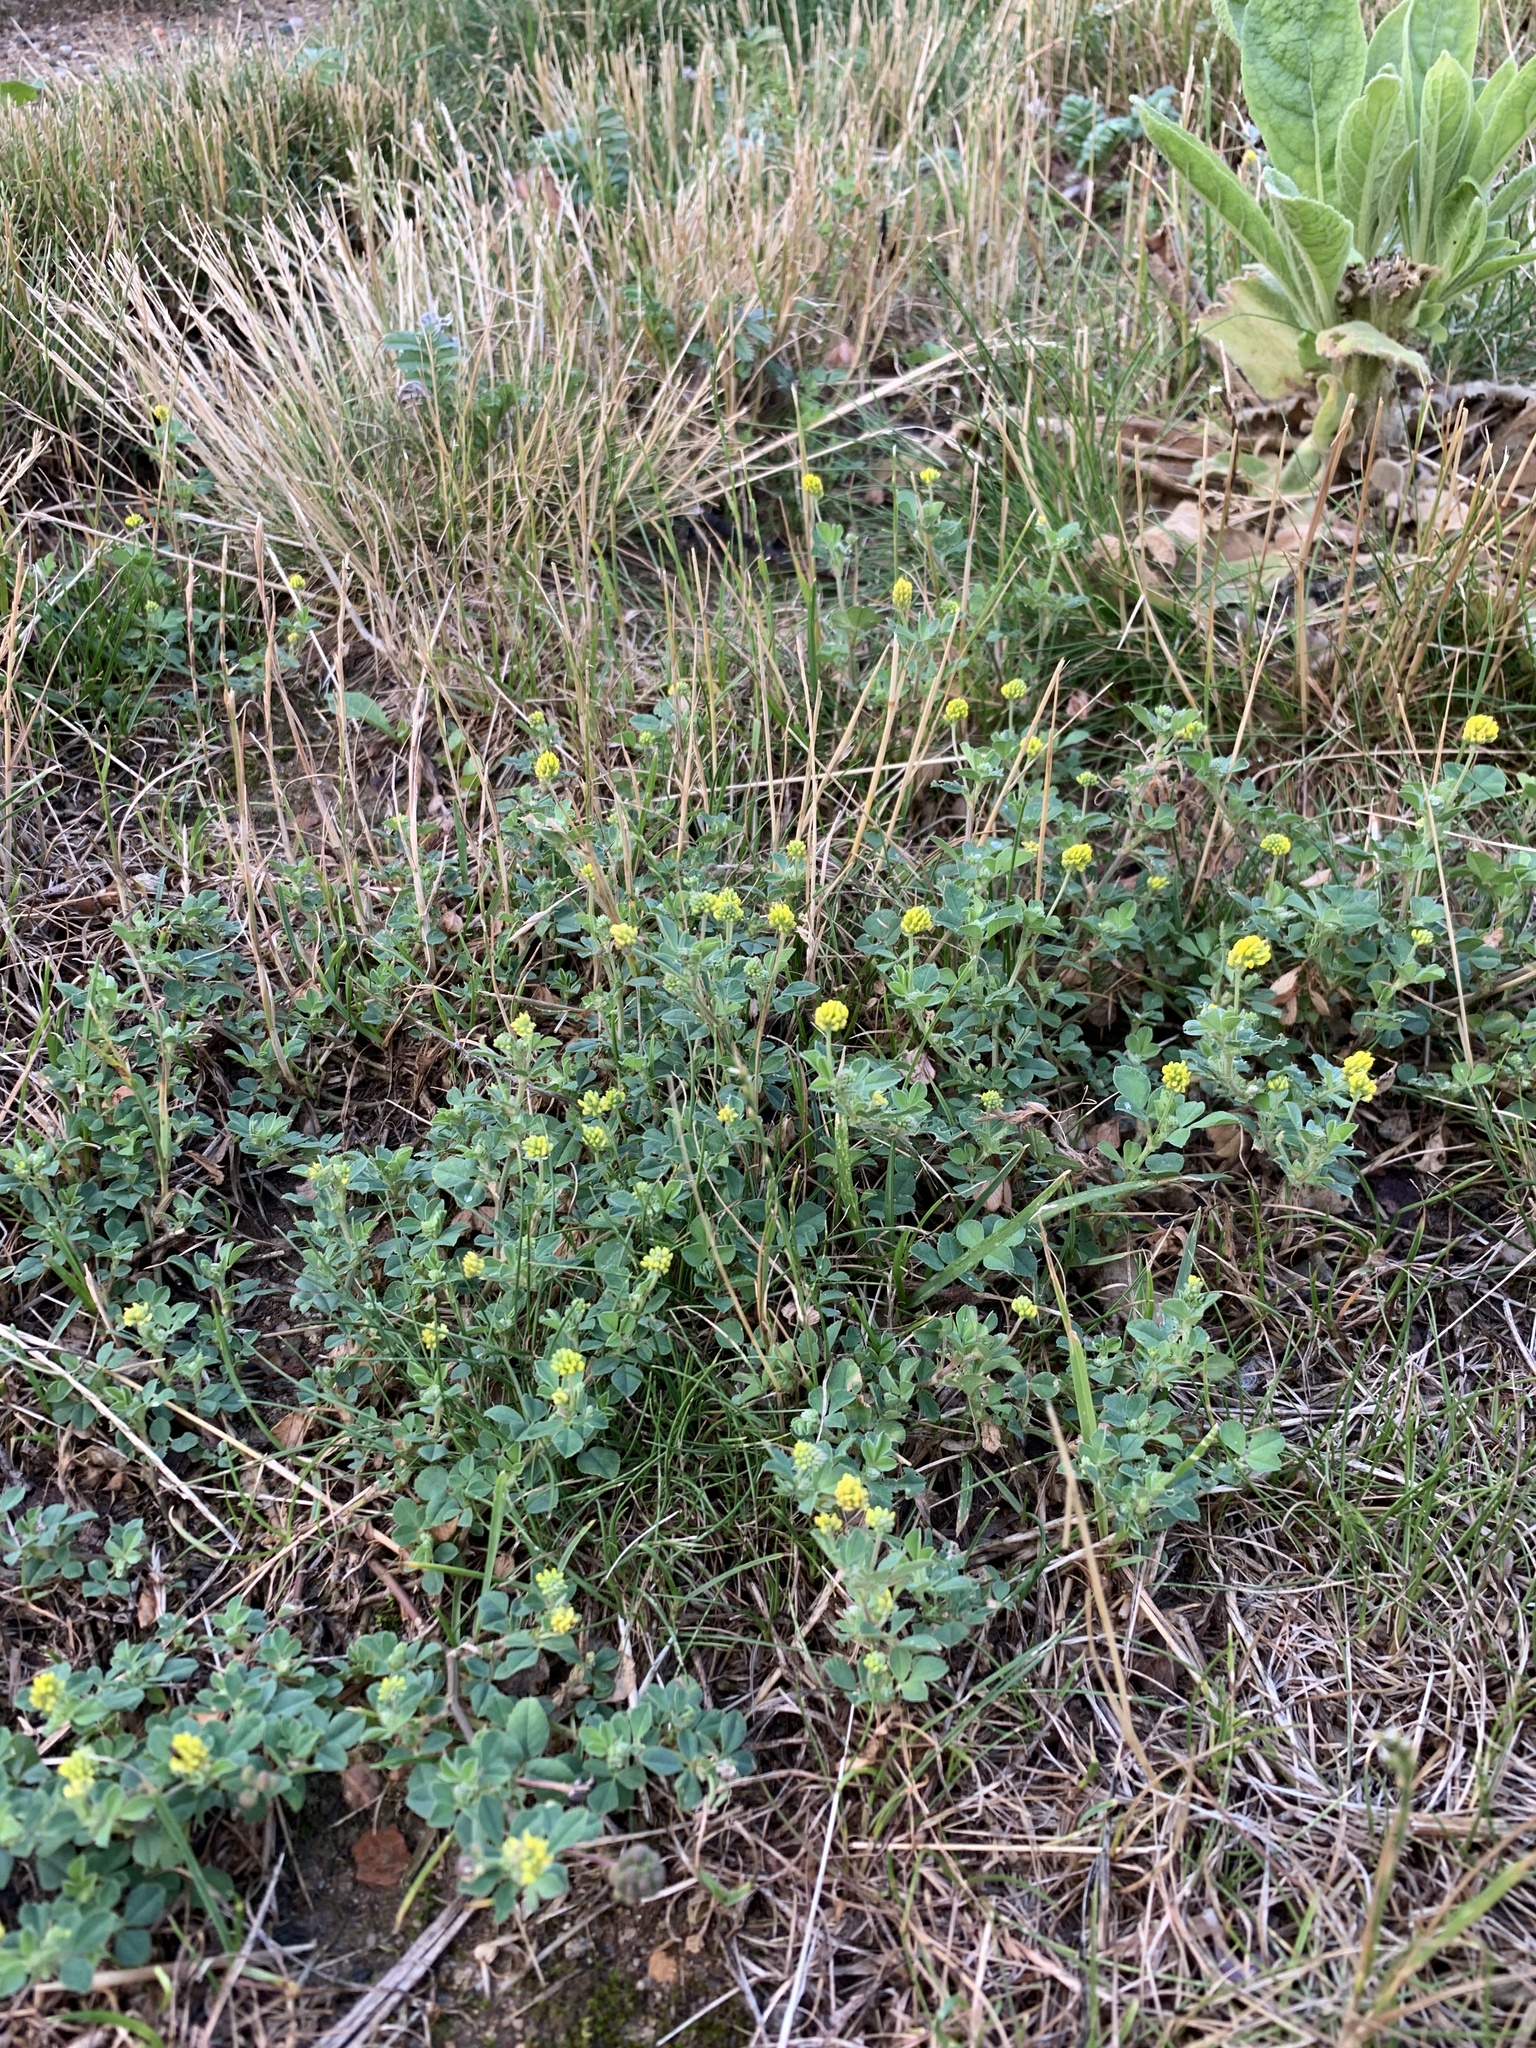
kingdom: Plantae
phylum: Tracheophyta
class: Magnoliopsida
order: Fabales
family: Fabaceae
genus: Medicago
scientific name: Medicago lupulina
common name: Black medick
